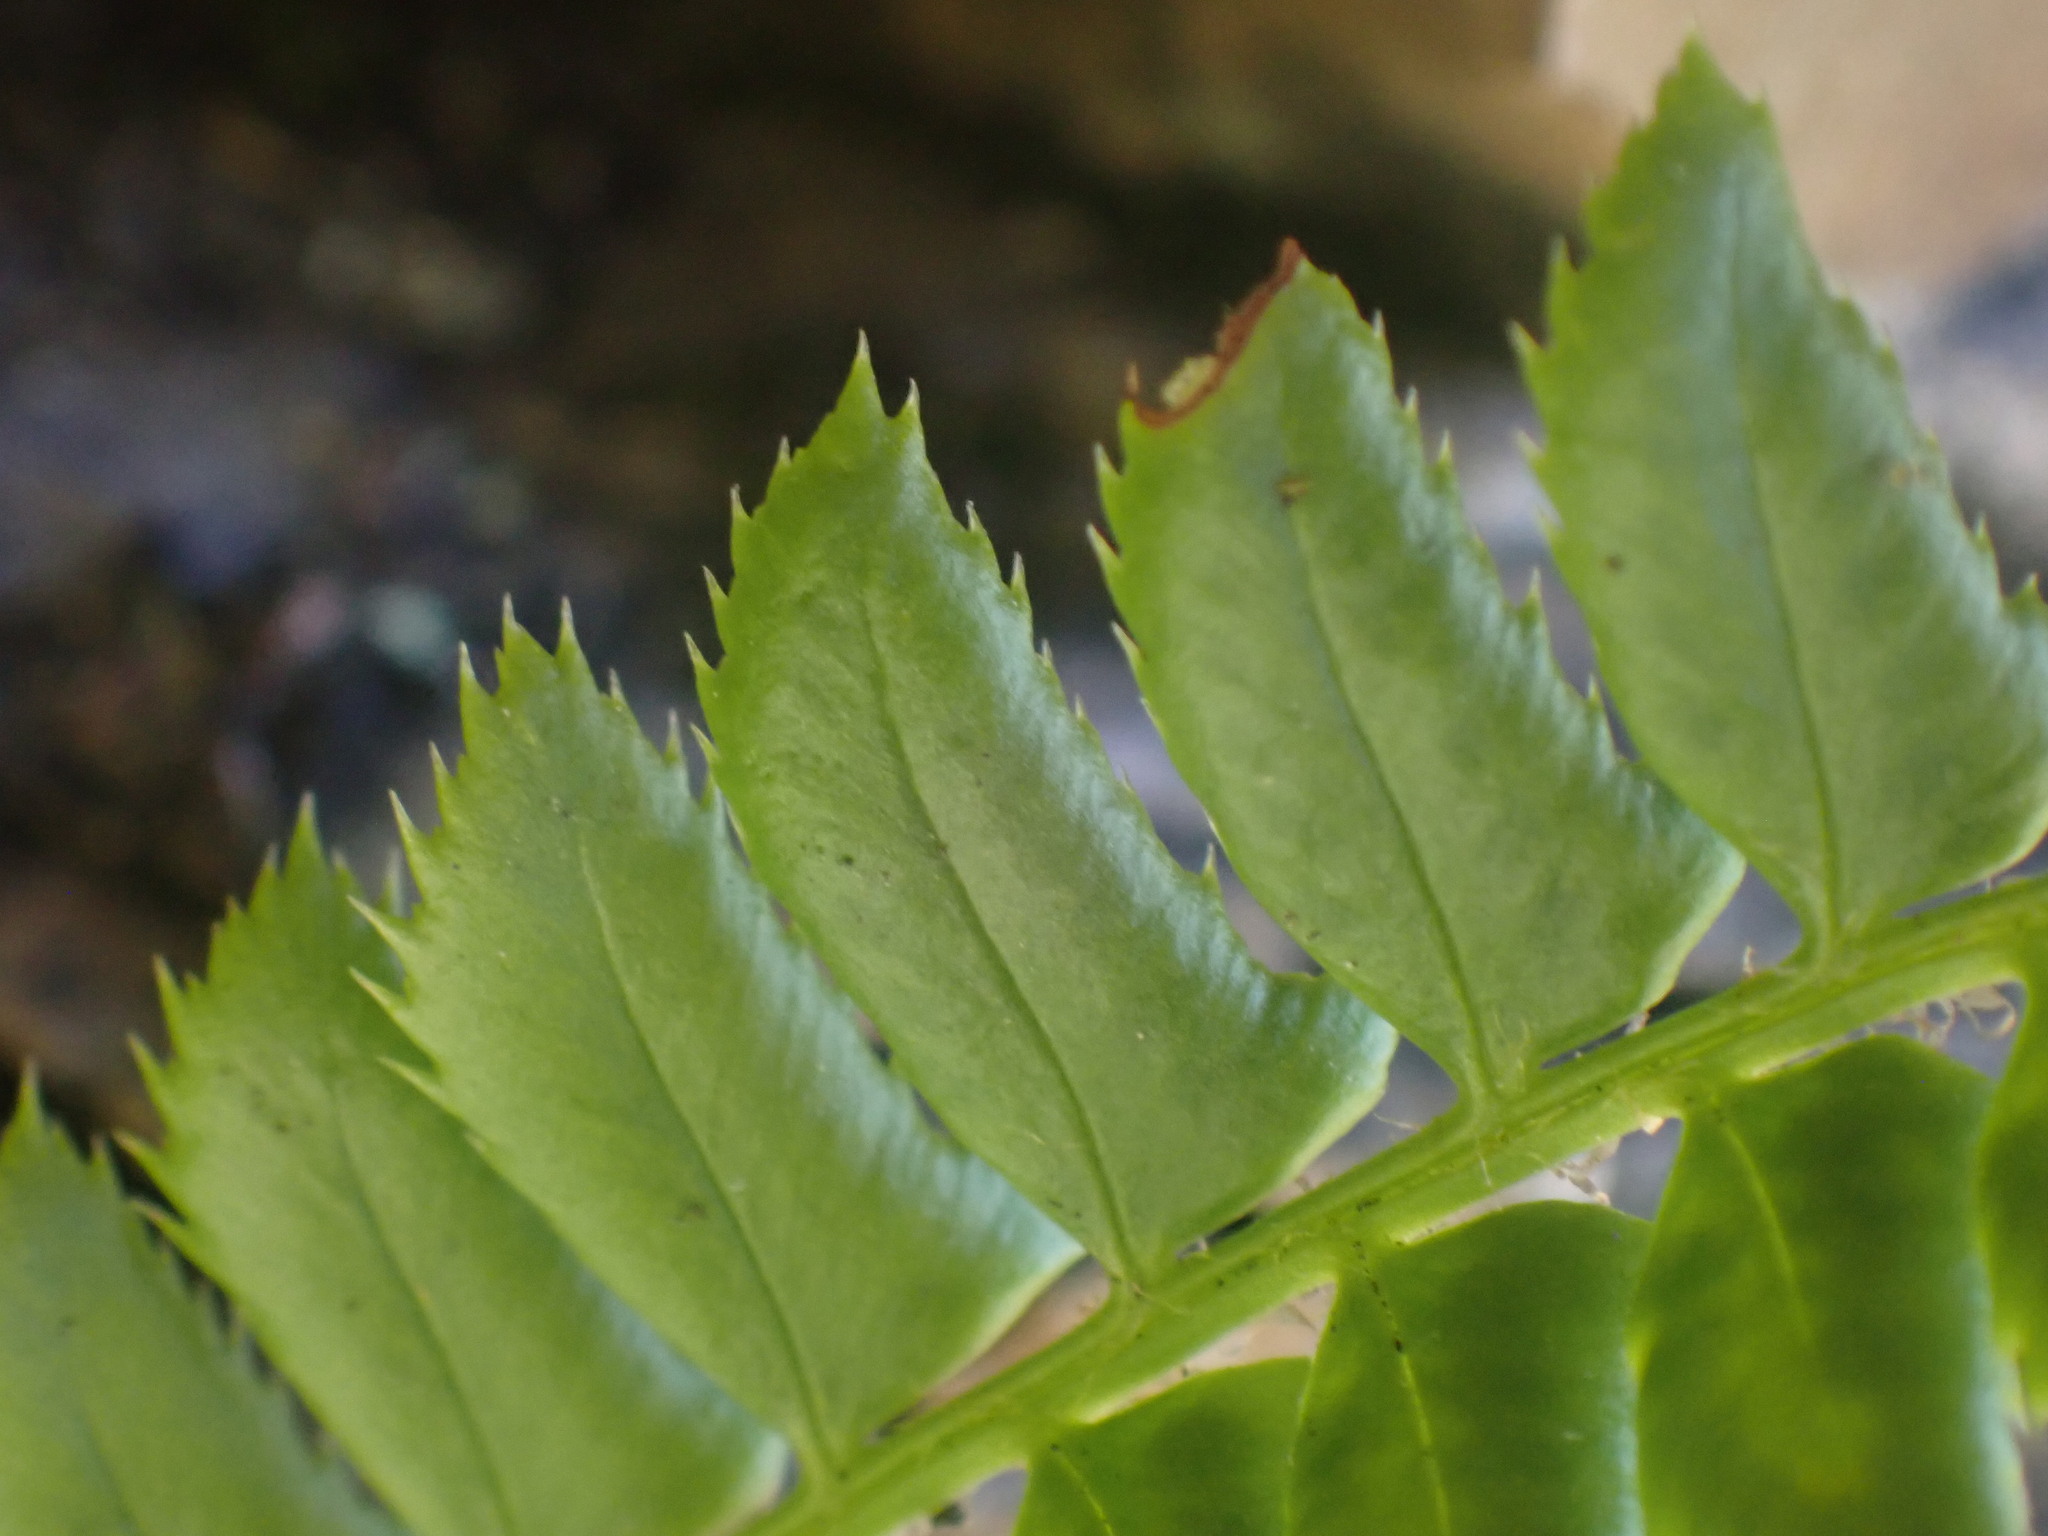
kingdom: Plantae
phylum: Tracheophyta
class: Polypodiopsida
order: Polypodiales
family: Dryopteridaceae
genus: Polystichum
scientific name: Polystichum lonchitis
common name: Holly fern
